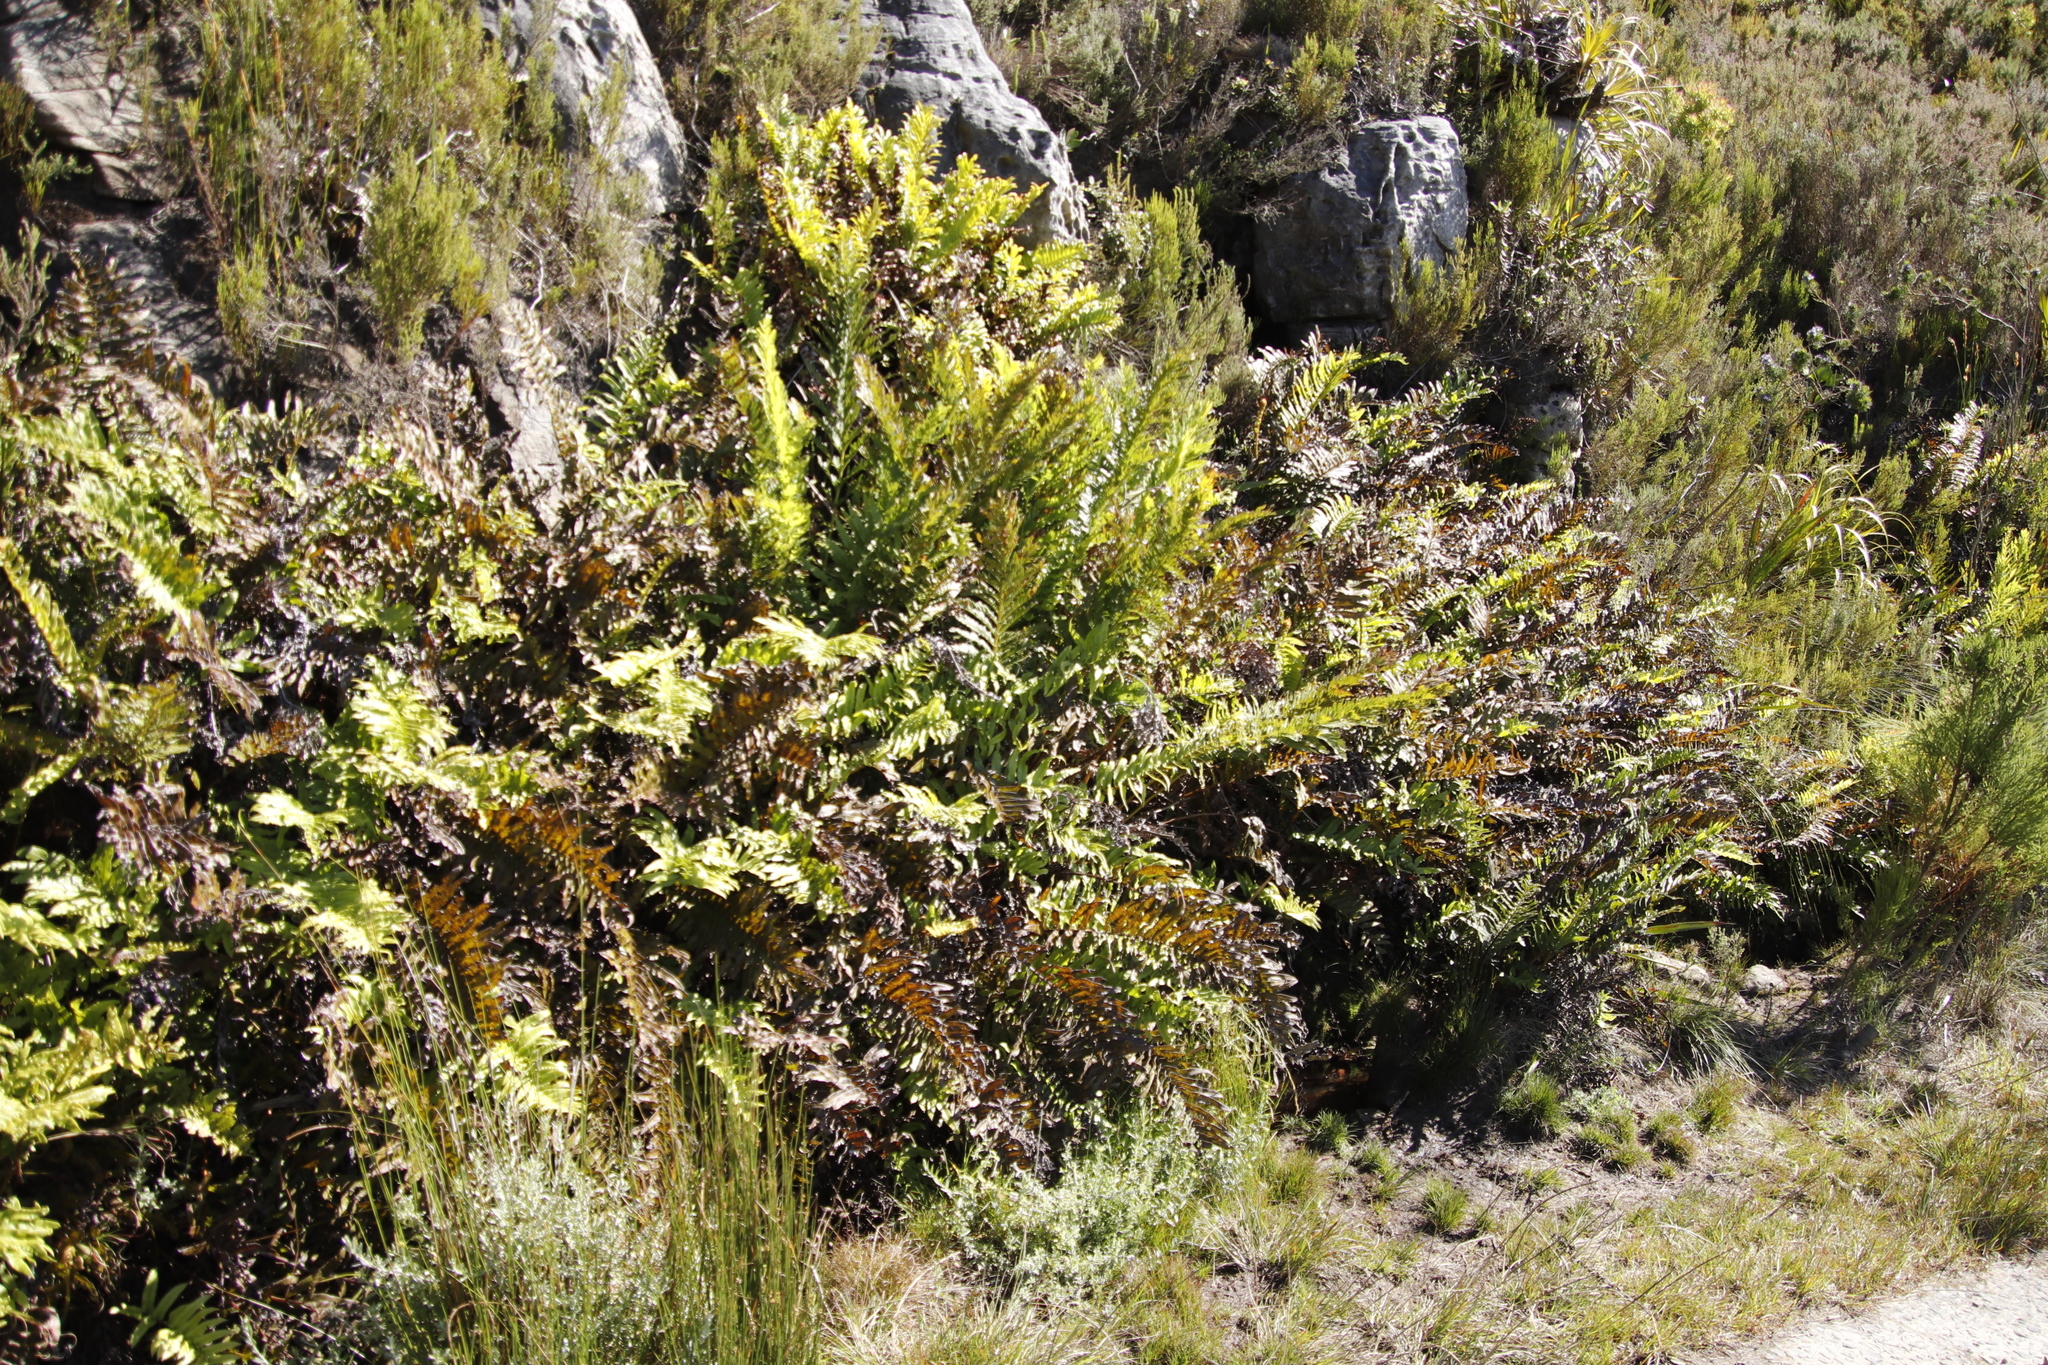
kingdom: Plantae
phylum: Tracheophyta
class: Polypodiopsida
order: Polypodiales
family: Blechnaceae
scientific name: Blechnaceae
